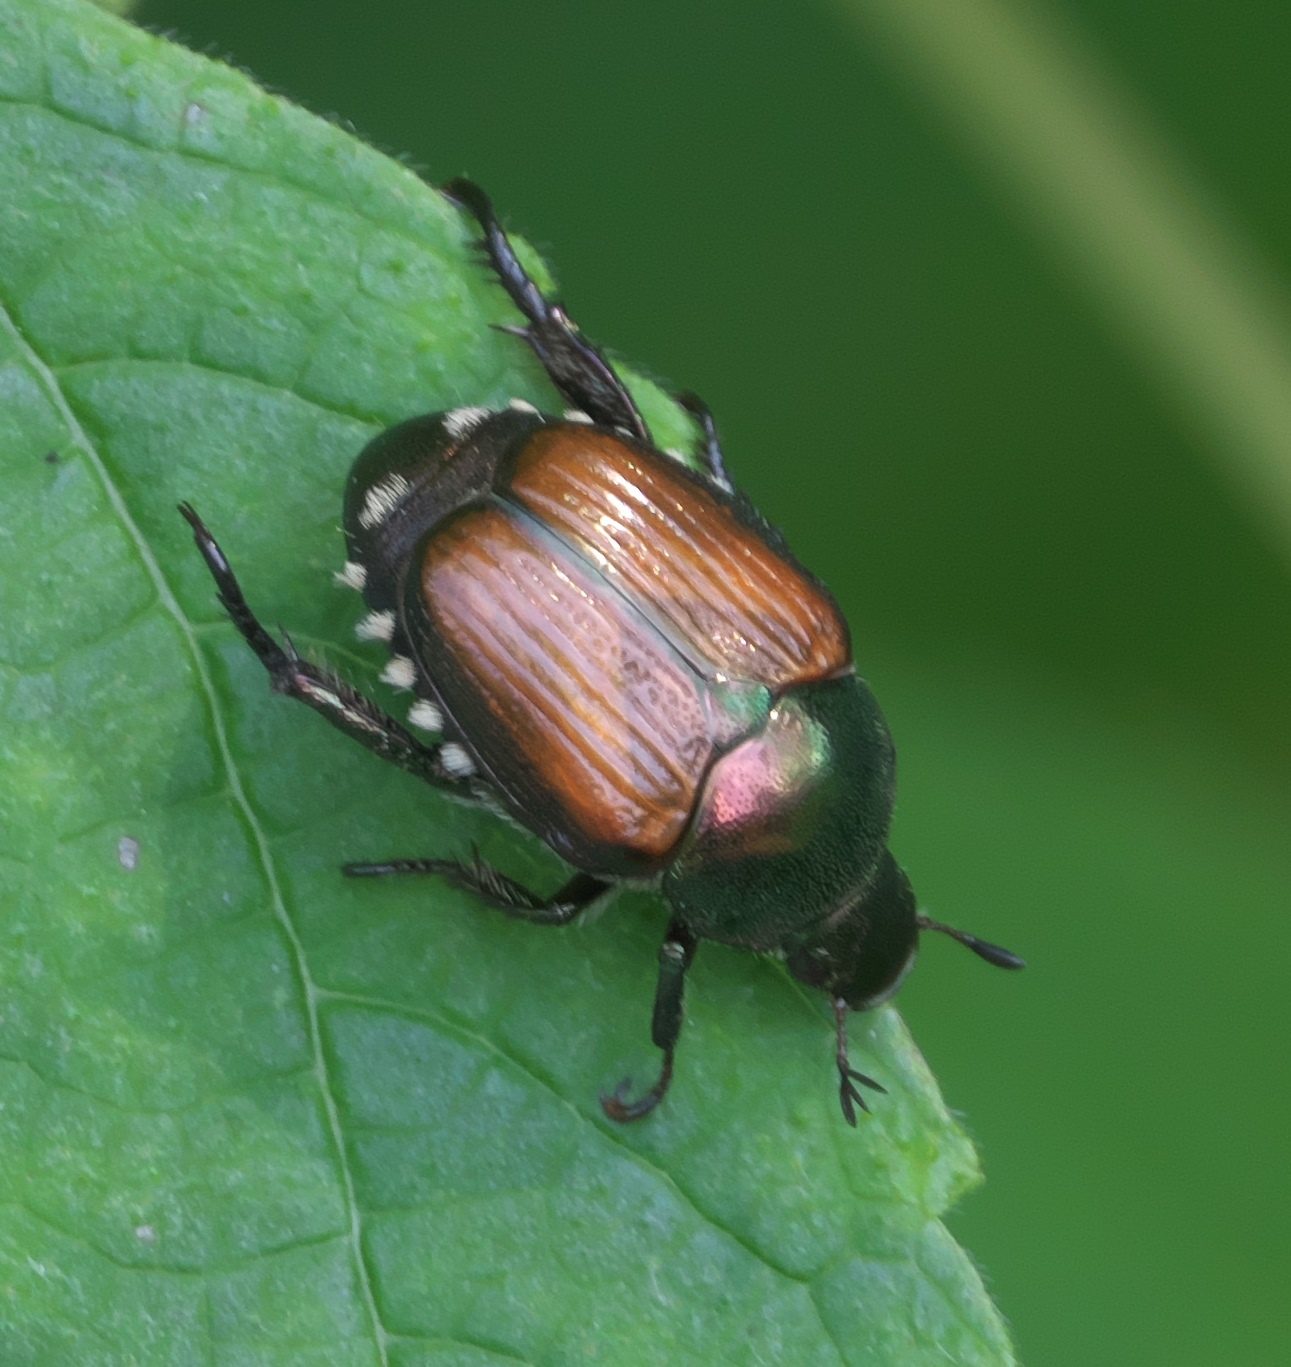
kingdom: Animalia
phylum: Arthropoda
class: Insecta
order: Coleoptera
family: Scarabaeidae
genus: Popillia
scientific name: Popillia japonica
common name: Japanese beetle
